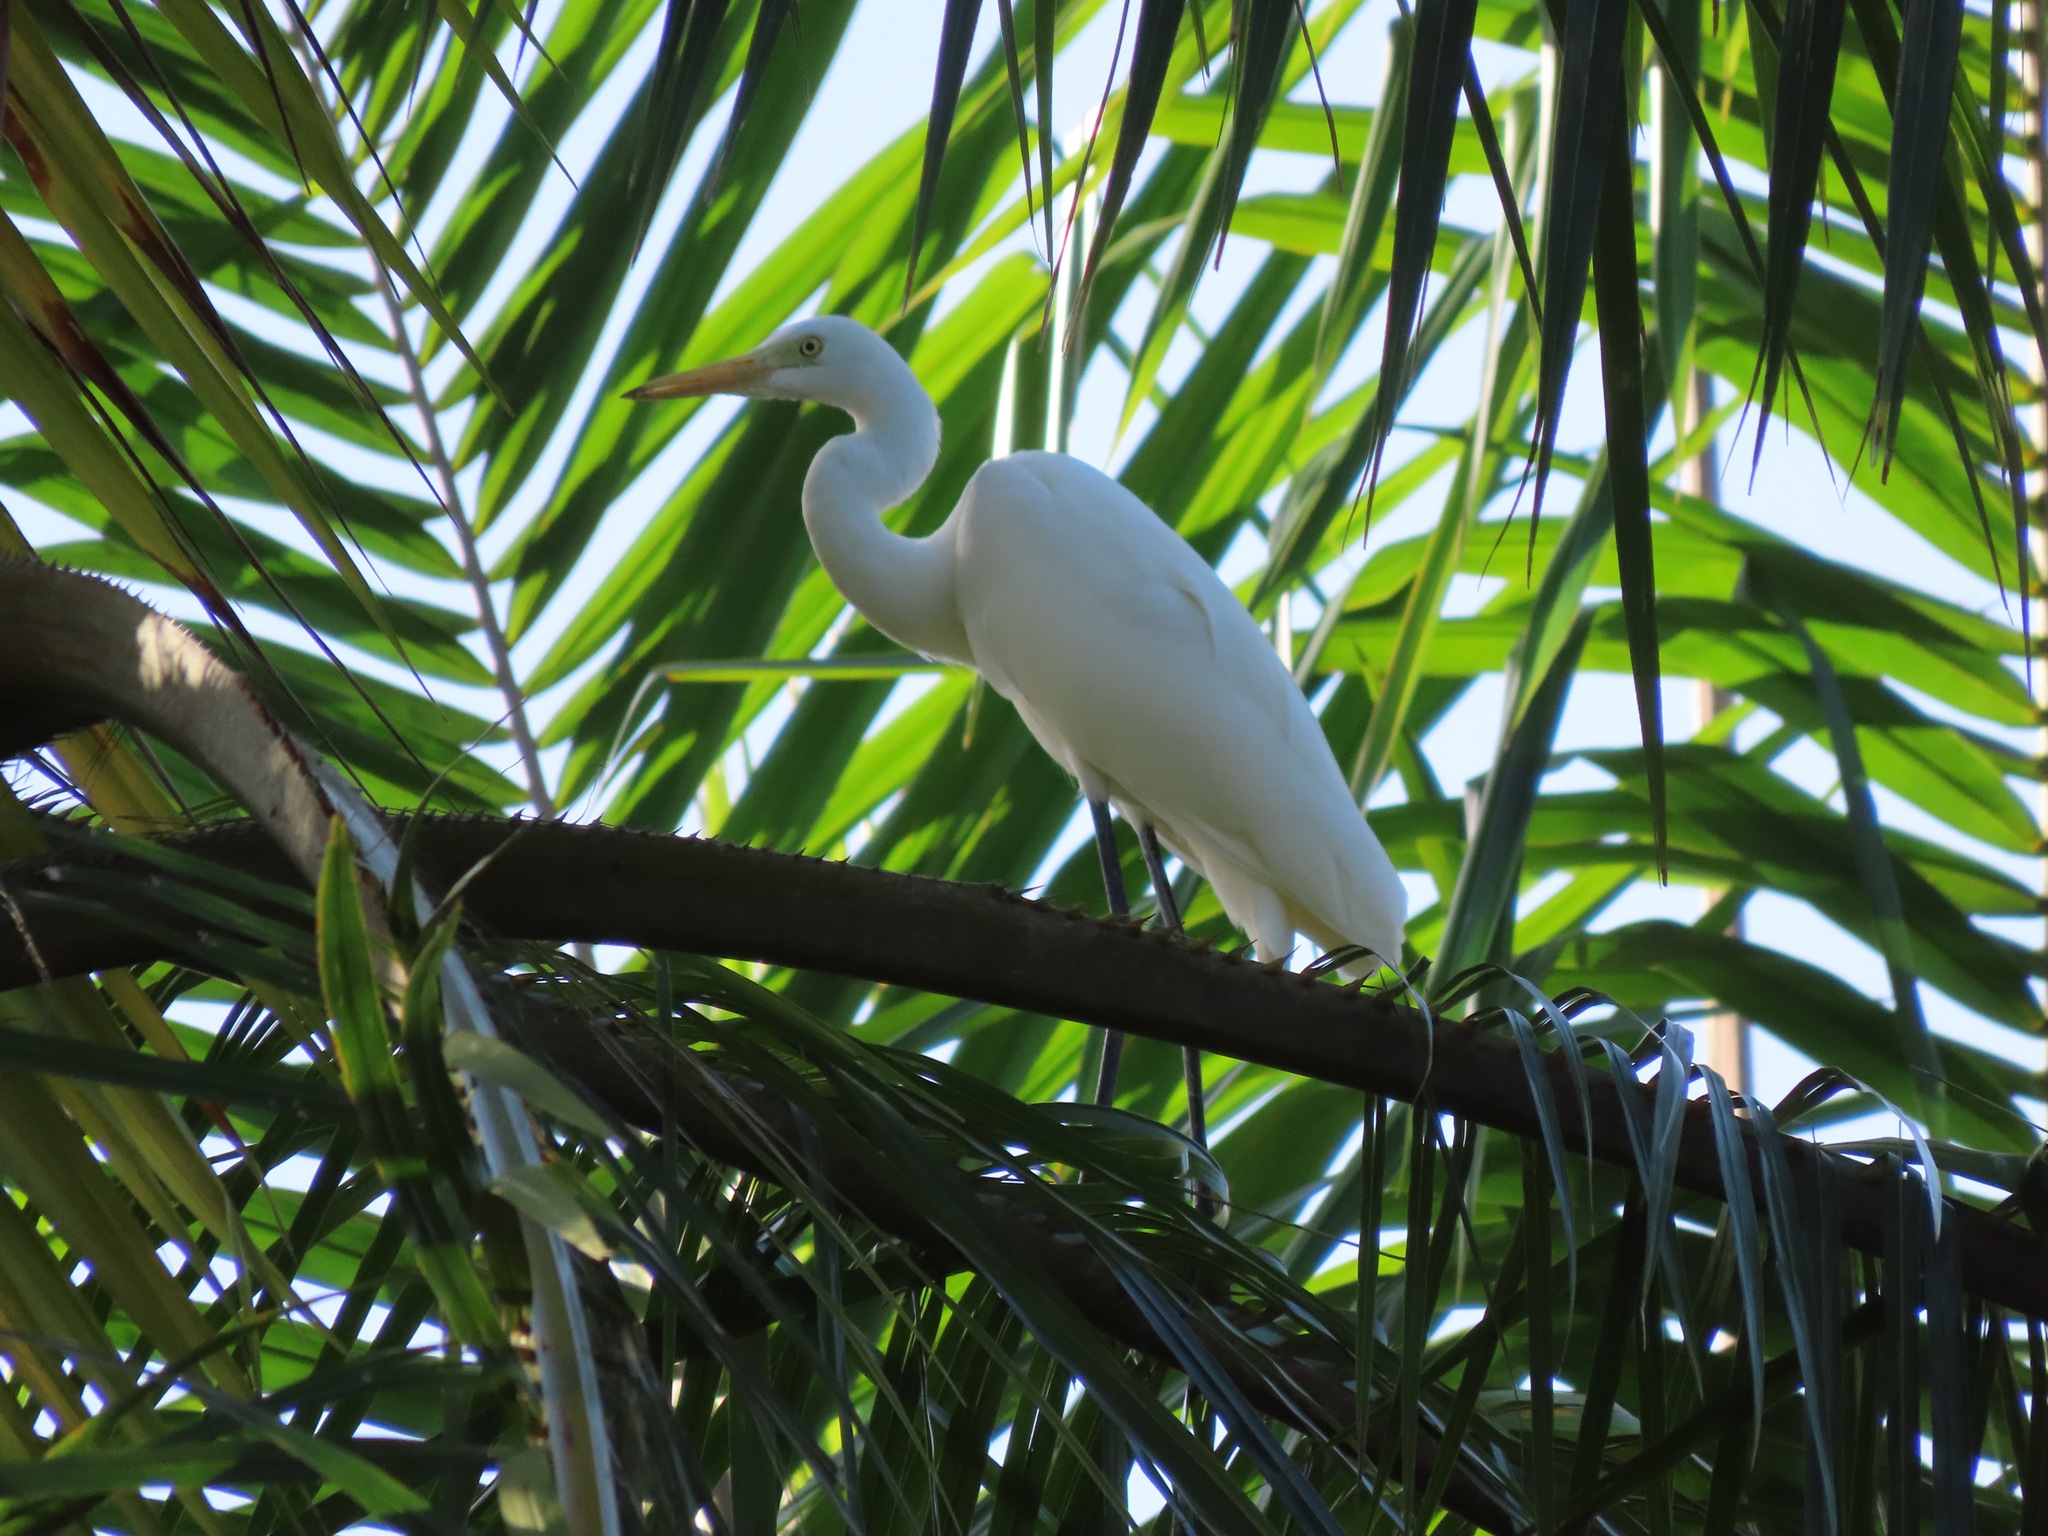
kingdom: Animalia
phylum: Chordata
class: Aves
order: Pelecaniformes
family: Ardeidae
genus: Egretta
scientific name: Egretta intermedia
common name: Intermediate egret
